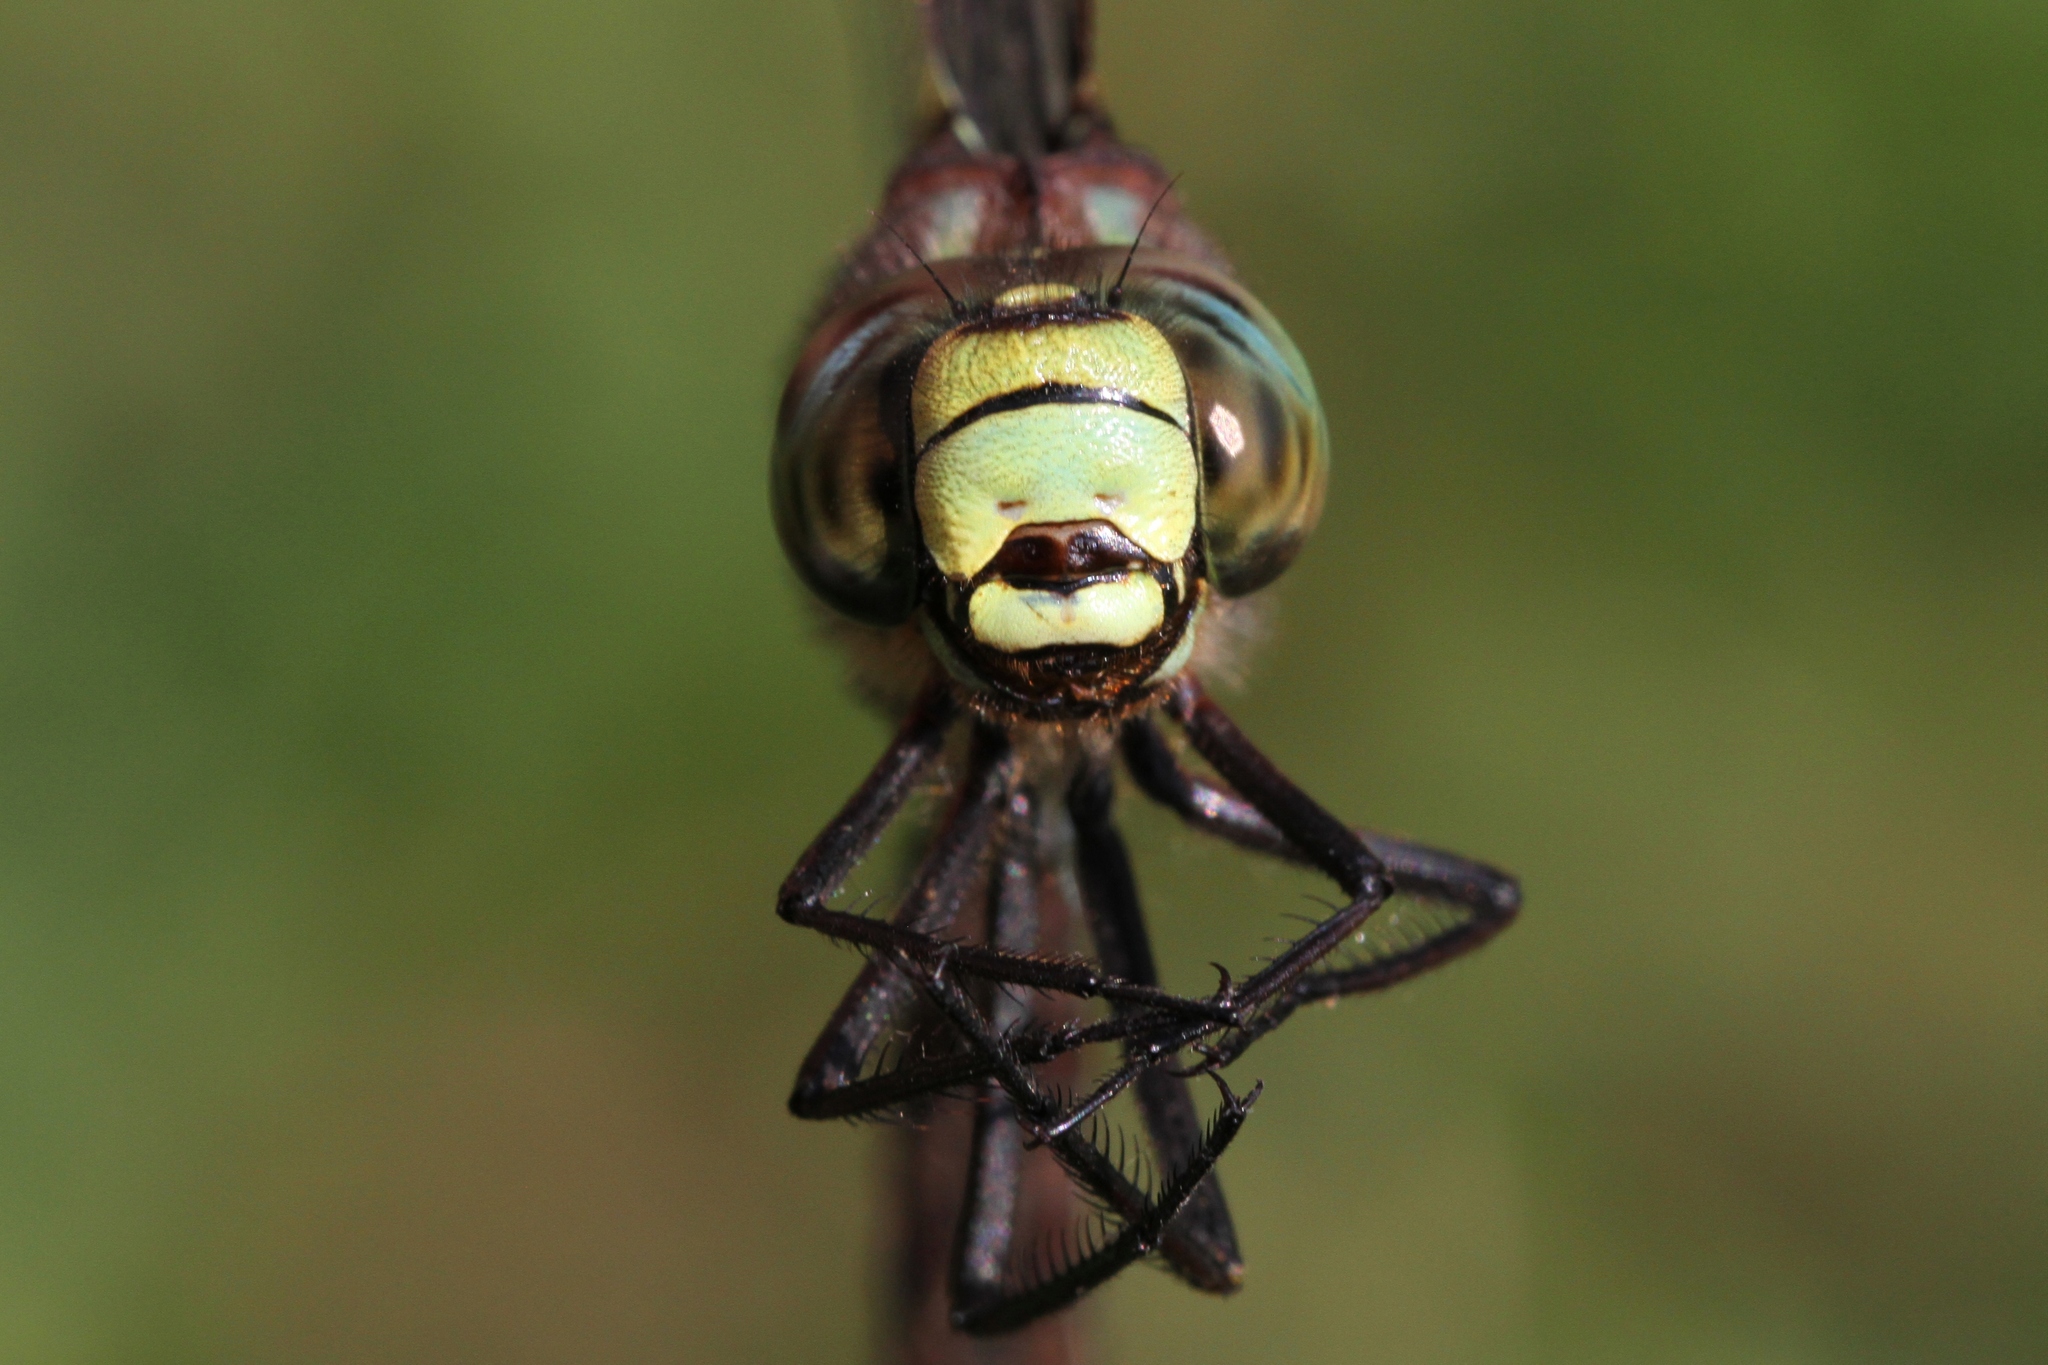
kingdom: Animalia
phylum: Arthropoda
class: Insecta
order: Odonata
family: Aeshnidae
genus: Aeshna
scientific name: Aeshna juncea
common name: Moorland hawker
